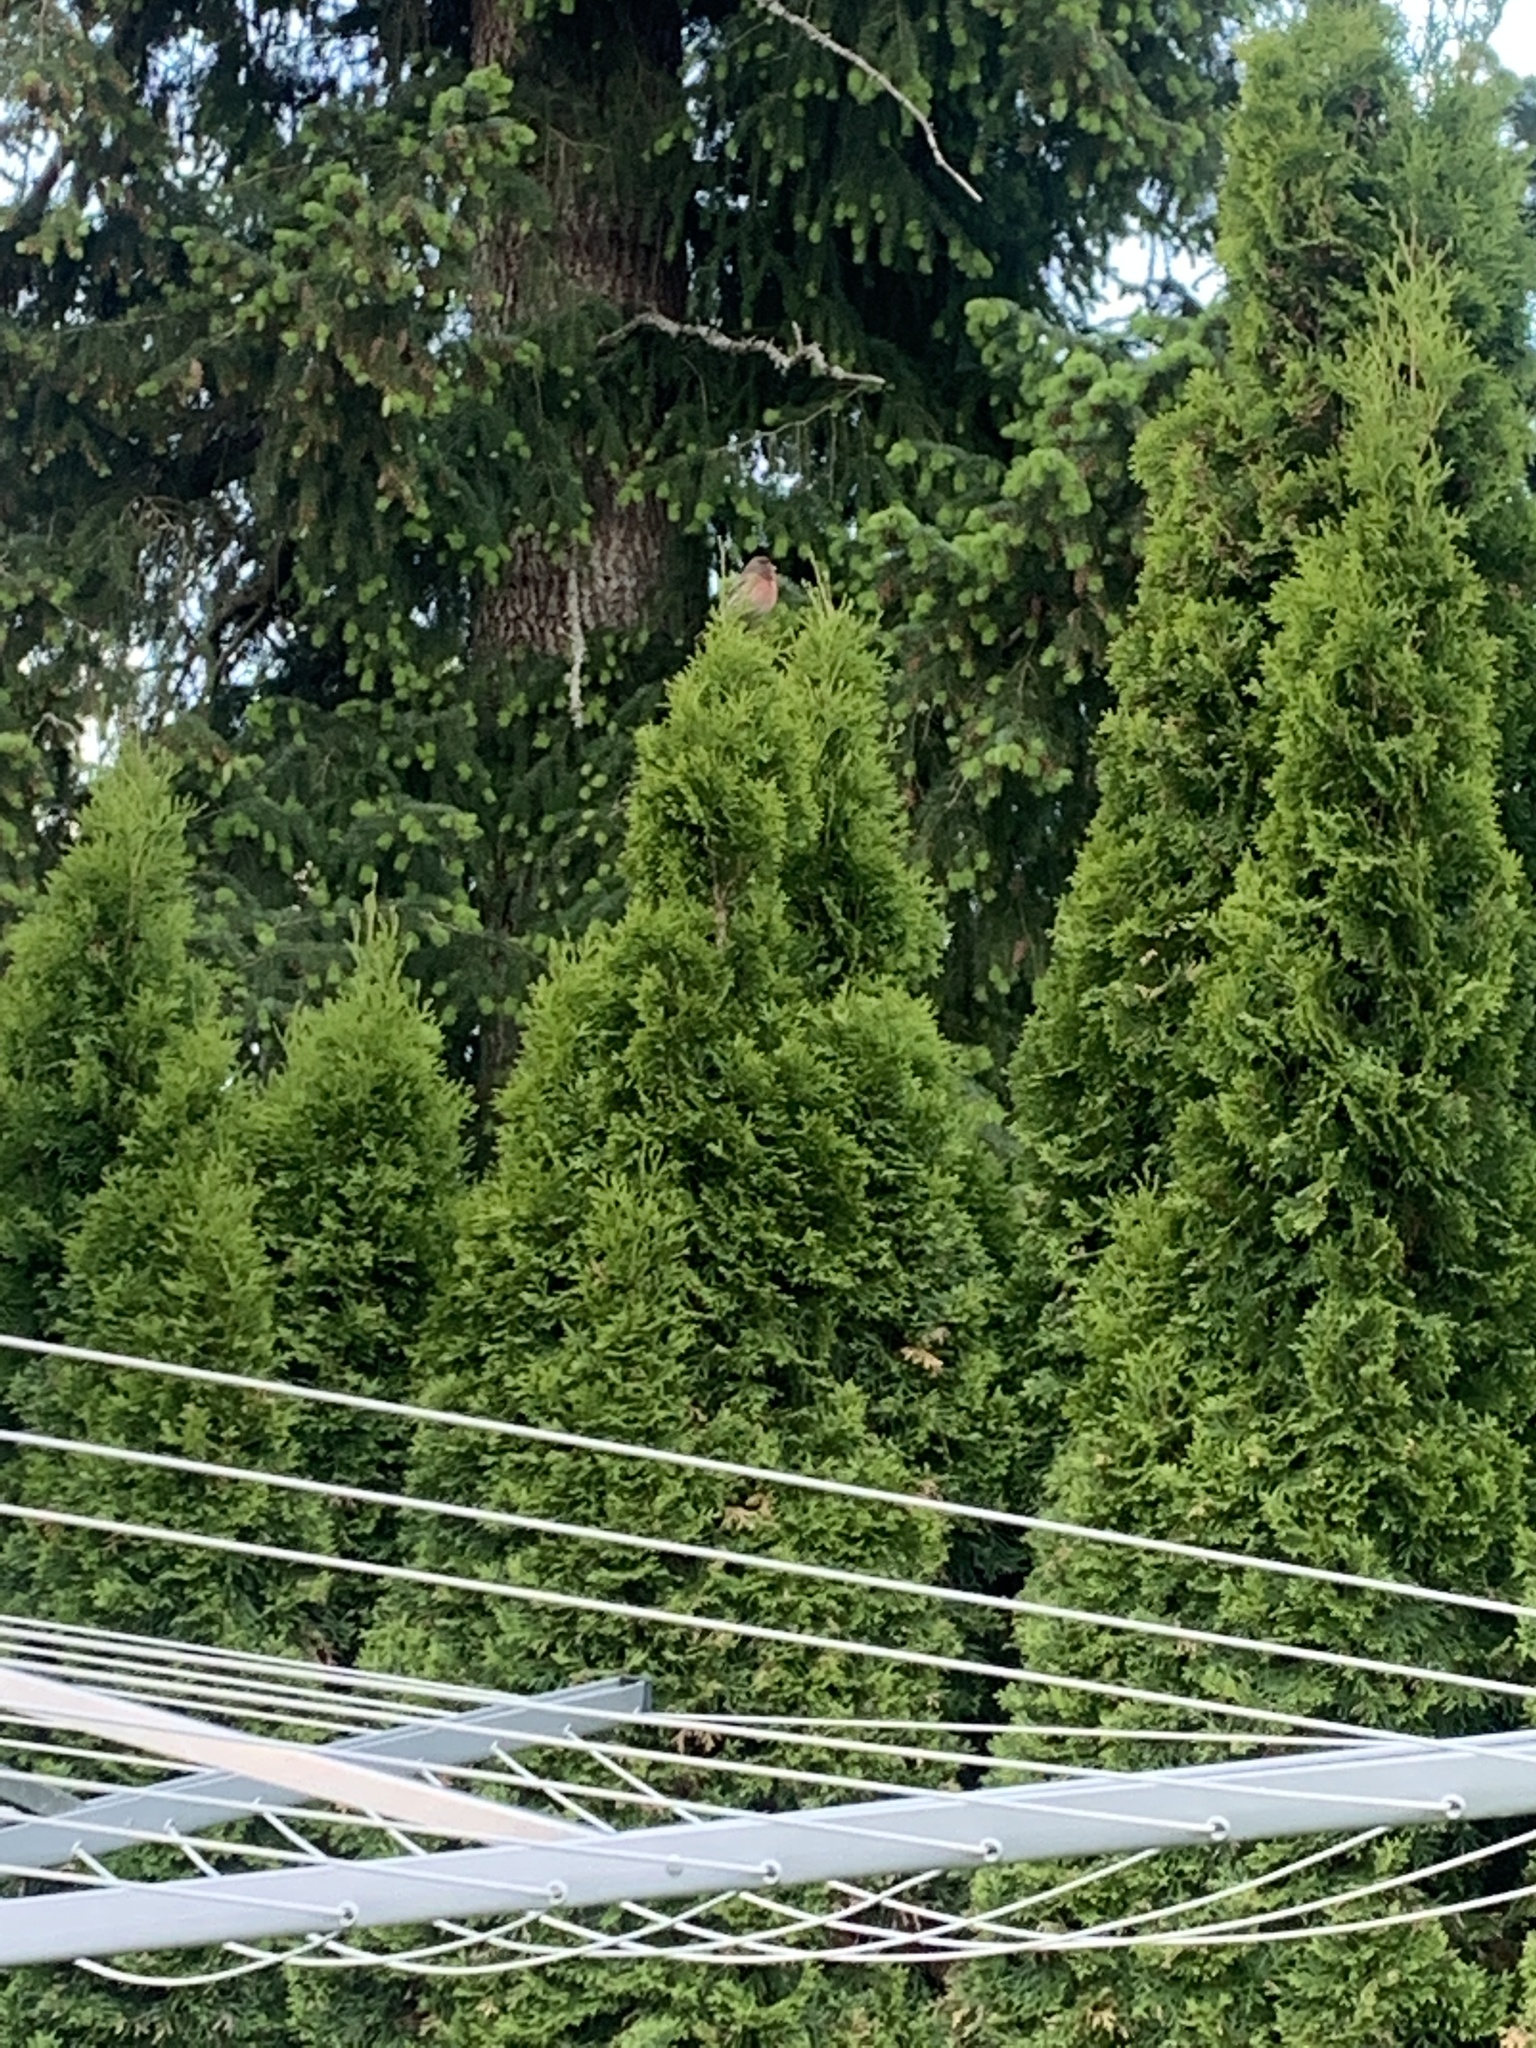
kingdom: Animalia
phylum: Chordata
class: Aves
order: Passeriformes
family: Fringillidae
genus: Haemorhous
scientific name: Haemorhous mexicanus
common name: House finch
